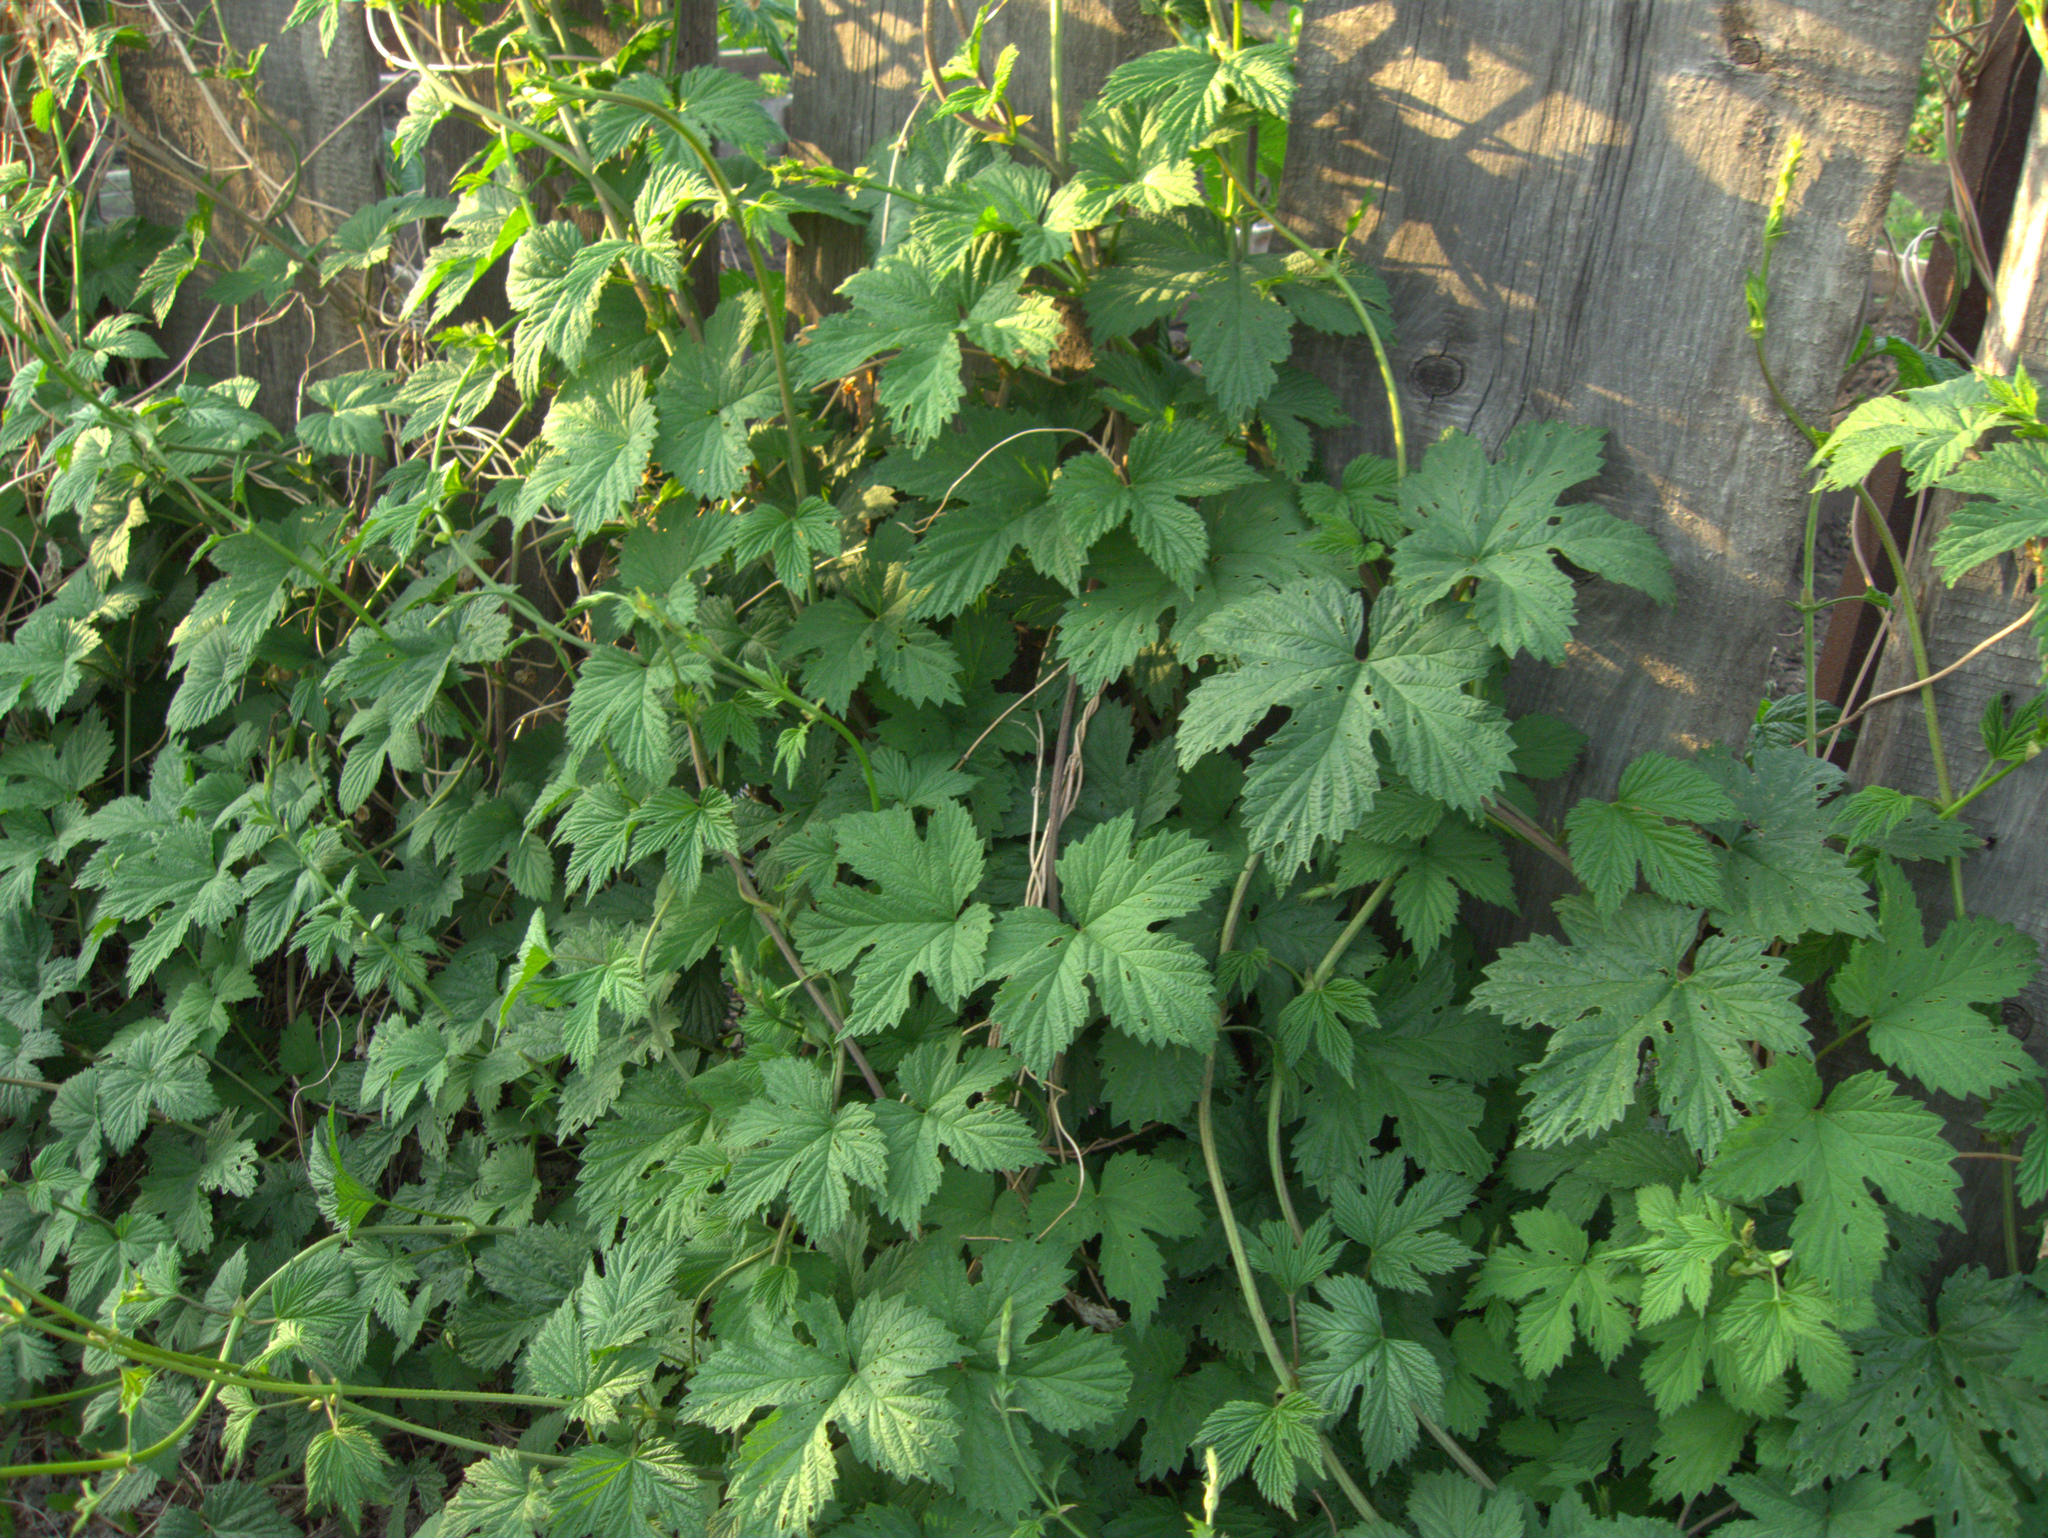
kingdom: Plantae
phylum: Tracheophyta
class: Magnoliopsida
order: Rosales
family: Cannabaceae
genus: Humulus
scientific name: Humulus lupulus
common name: Hop
